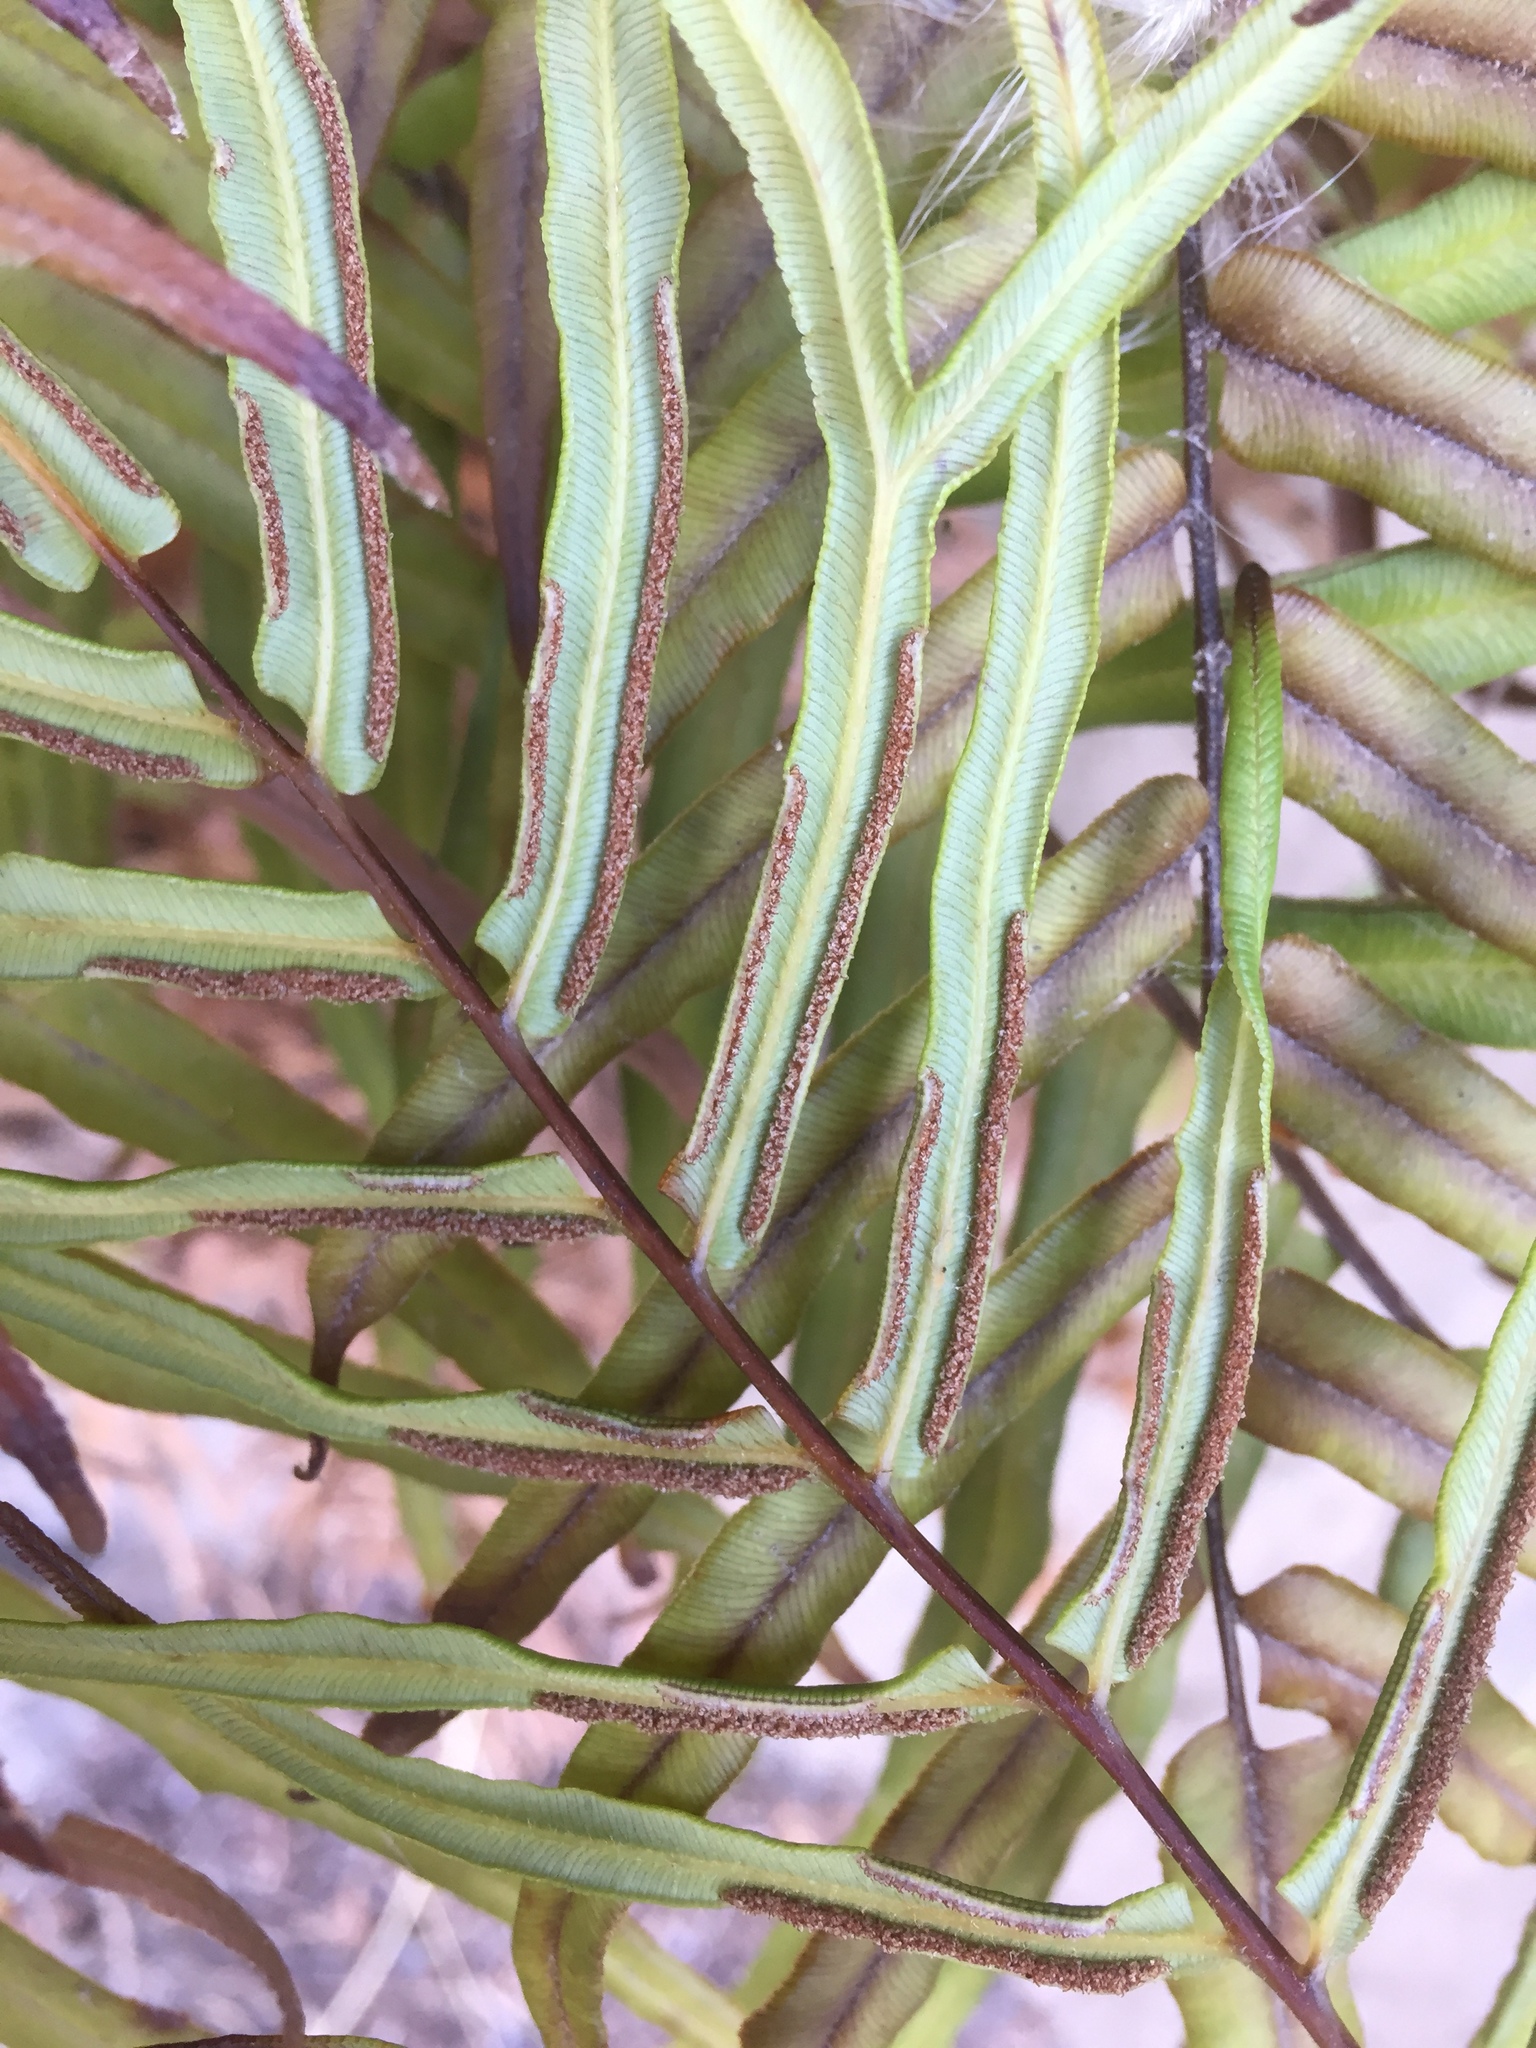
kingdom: Plantae
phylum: Tracheophyta
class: Polypodiopsida
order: Polypodiales
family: Pteridaceae
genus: Pteris
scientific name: Pteris vittata
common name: Ladder brake
